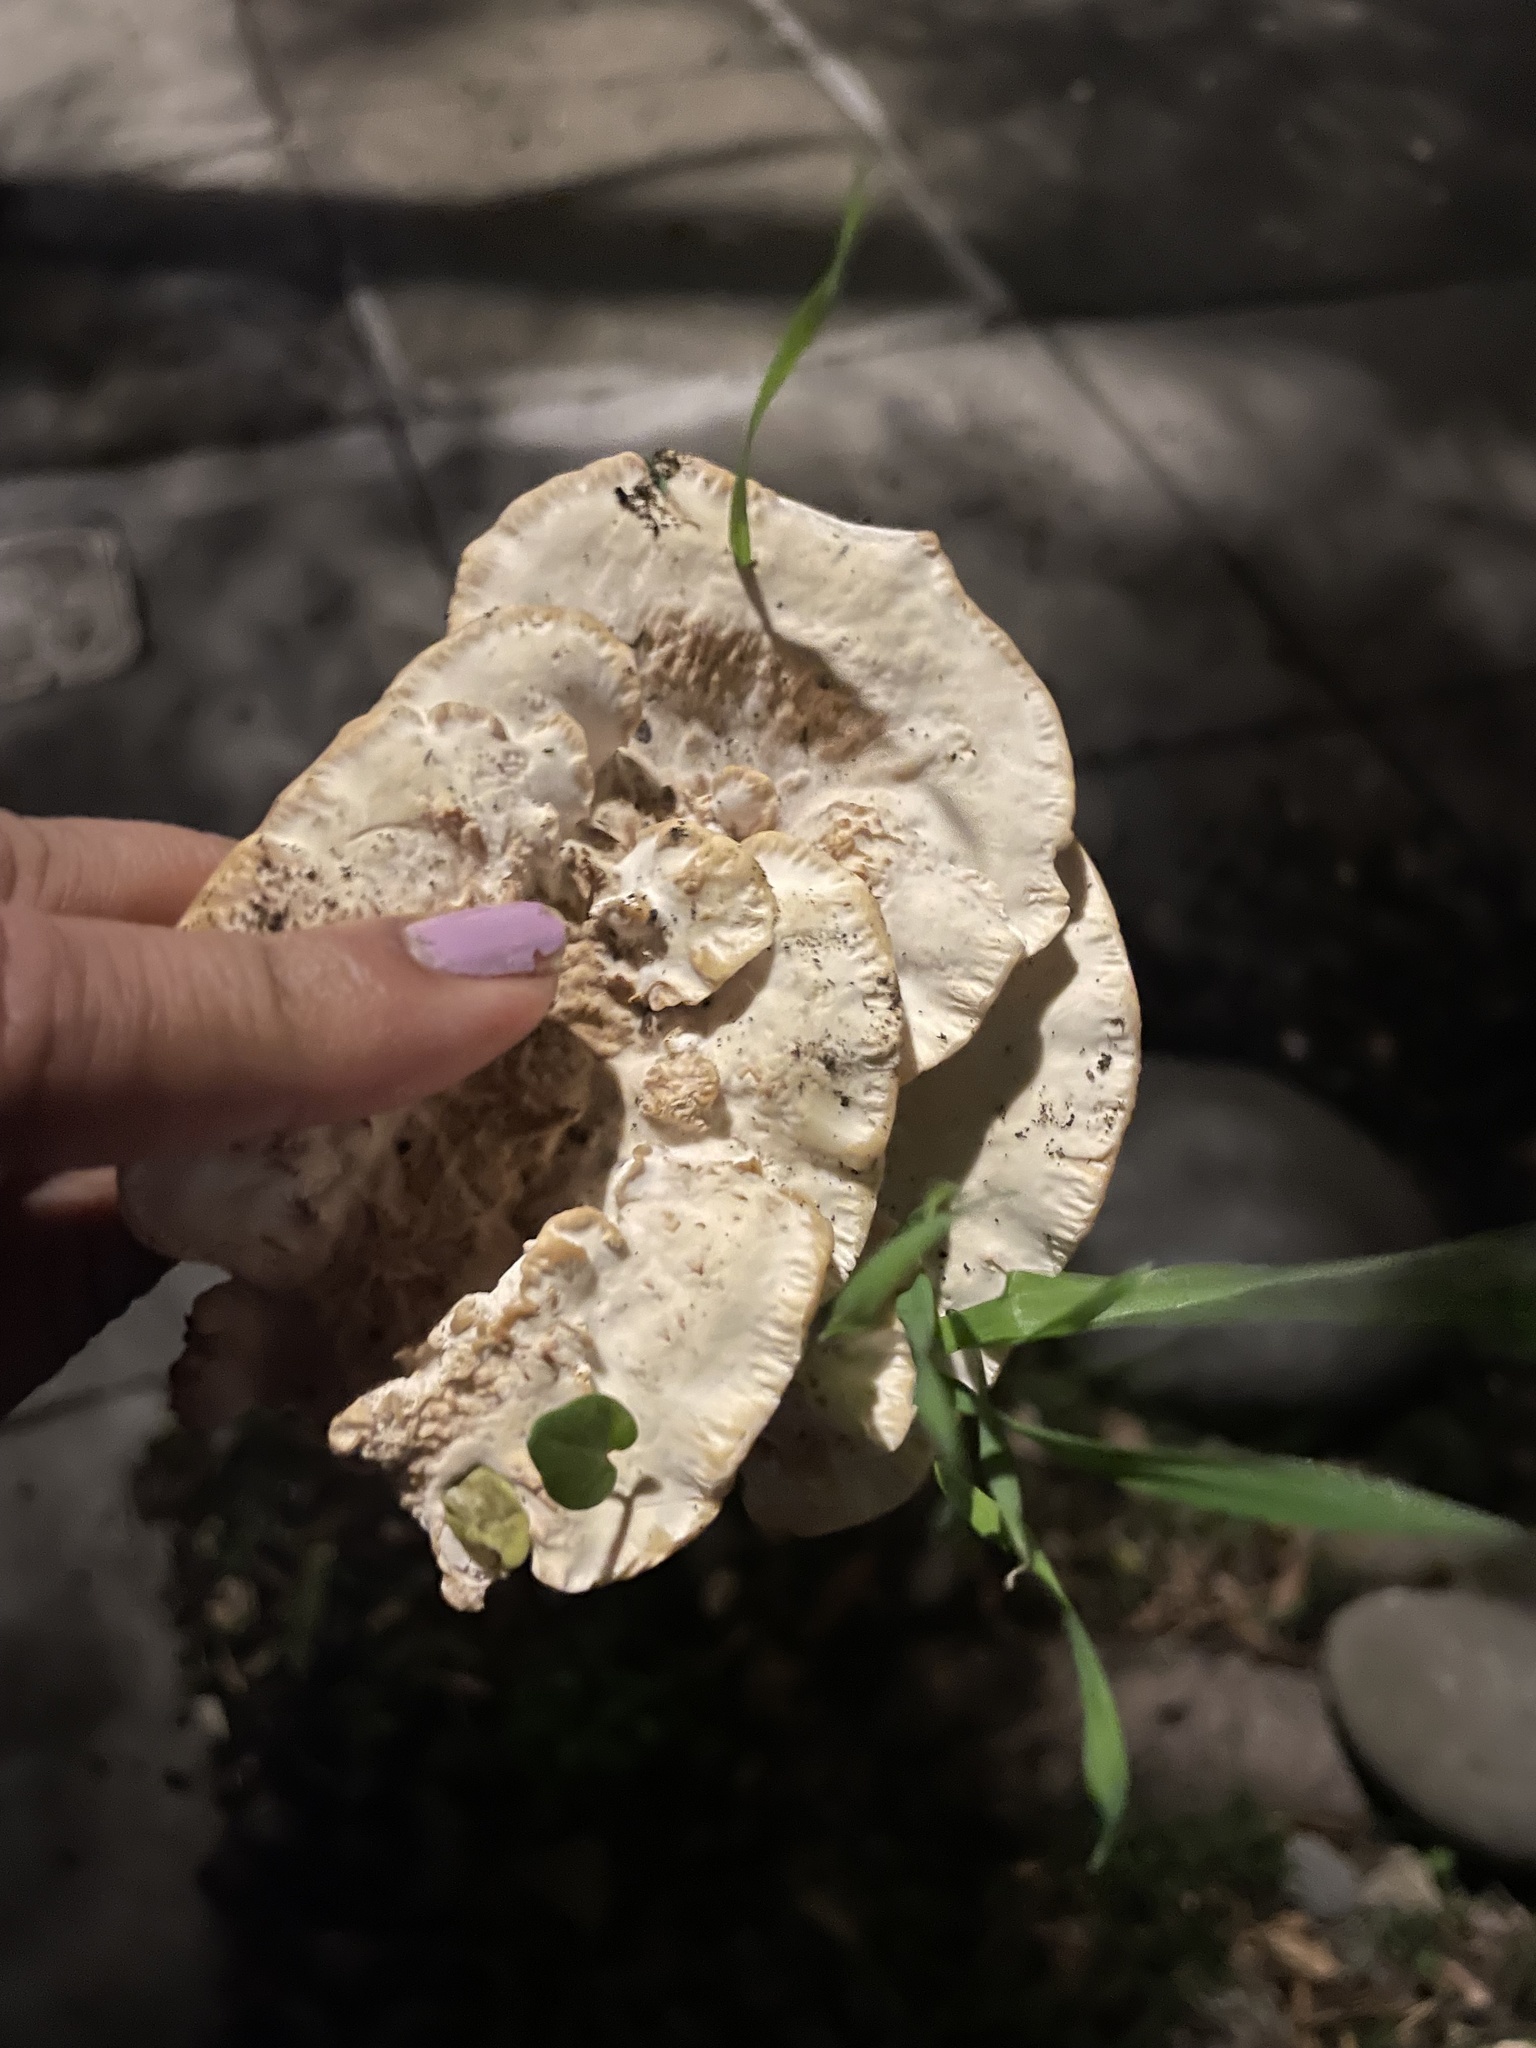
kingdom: Fungi
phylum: Basidiomycota
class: Agaricomycetes
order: Polyporales
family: Podoscyphaceae
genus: Abortiporus
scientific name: Abortiporus biennis
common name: Blushing rosette
